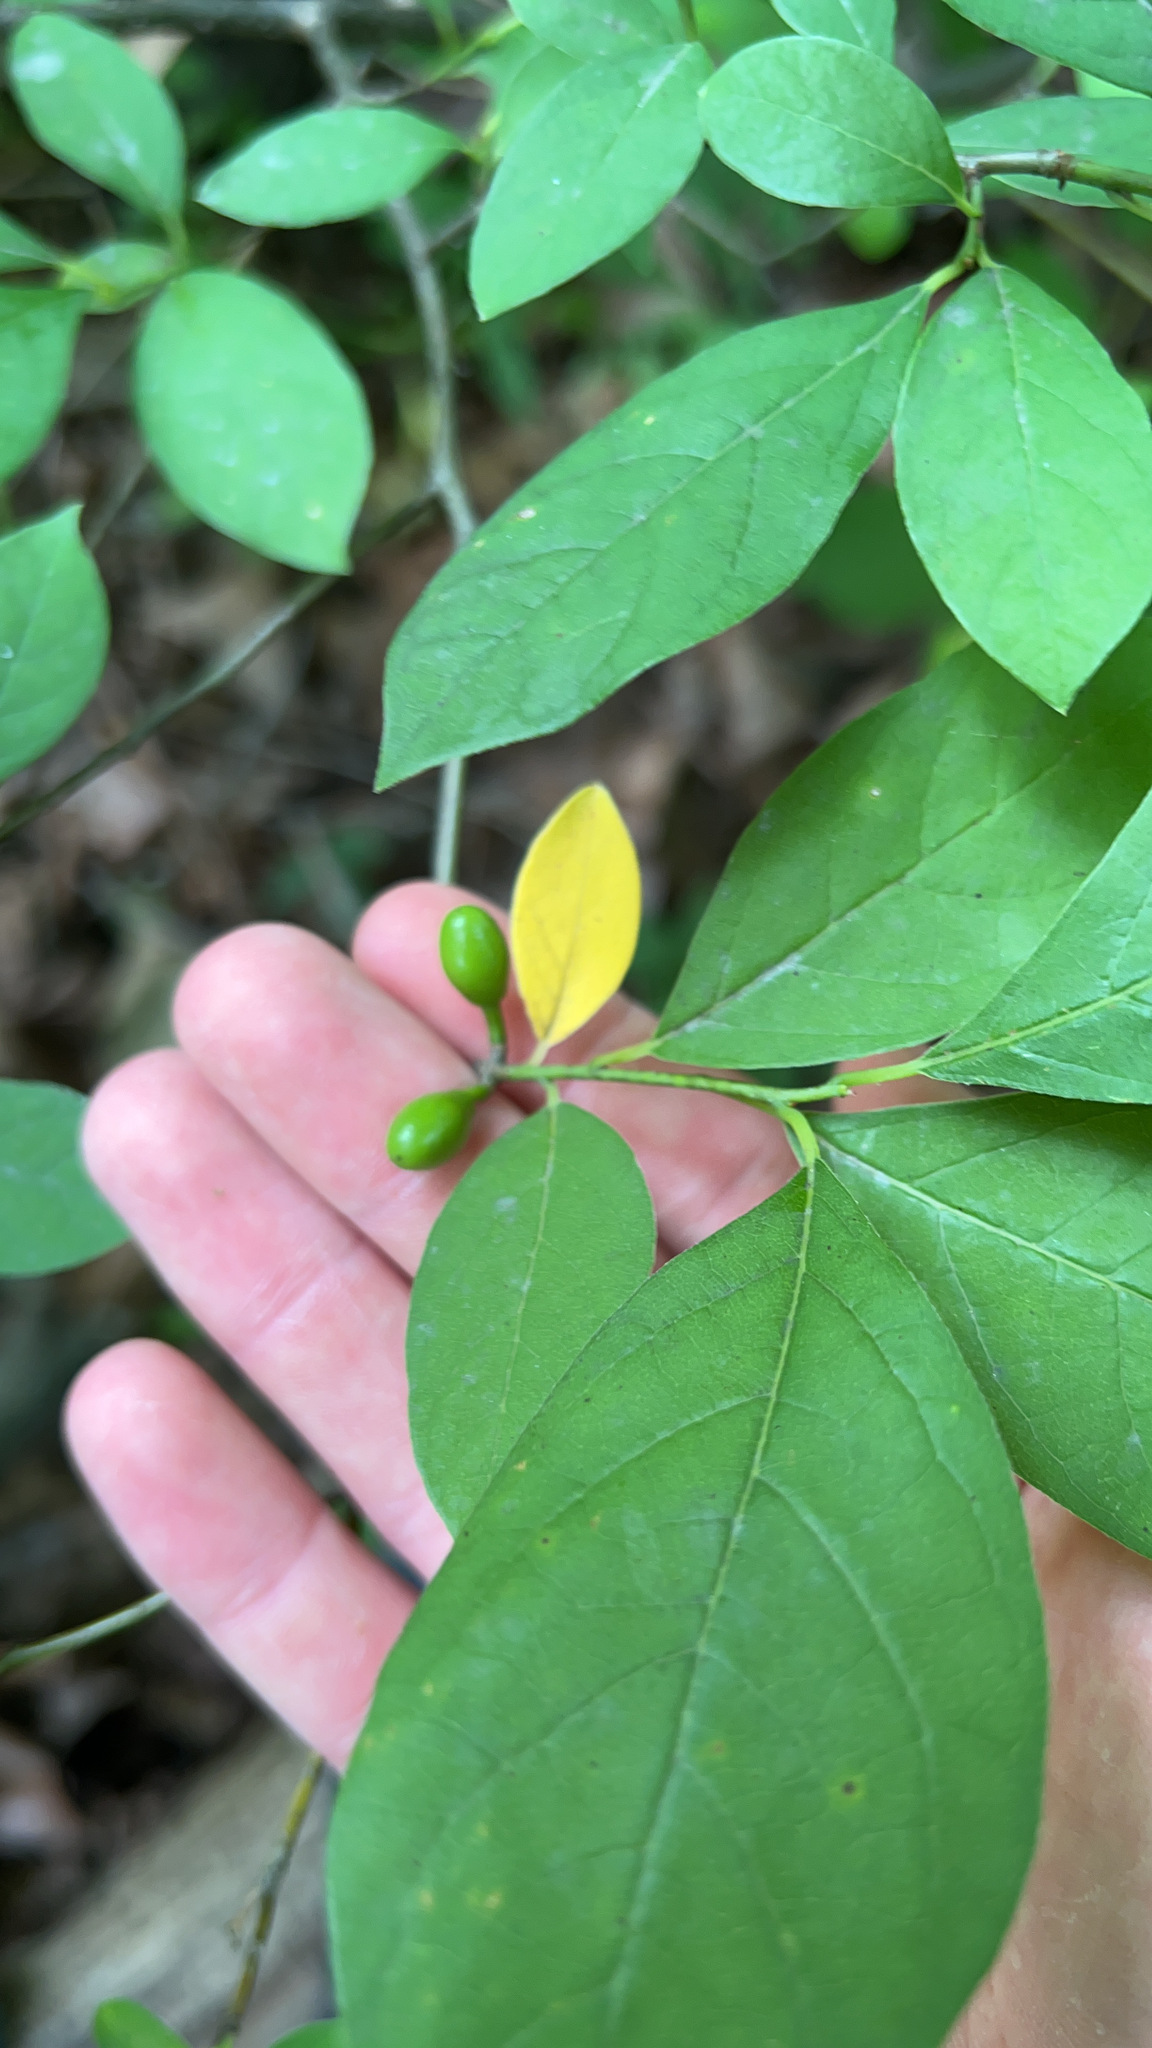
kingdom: Plantae
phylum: Tracheophyta
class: Magnoliopsida
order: Laurales
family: Lauraceae
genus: Lindera
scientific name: Lindera benzoin
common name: Spicebush
